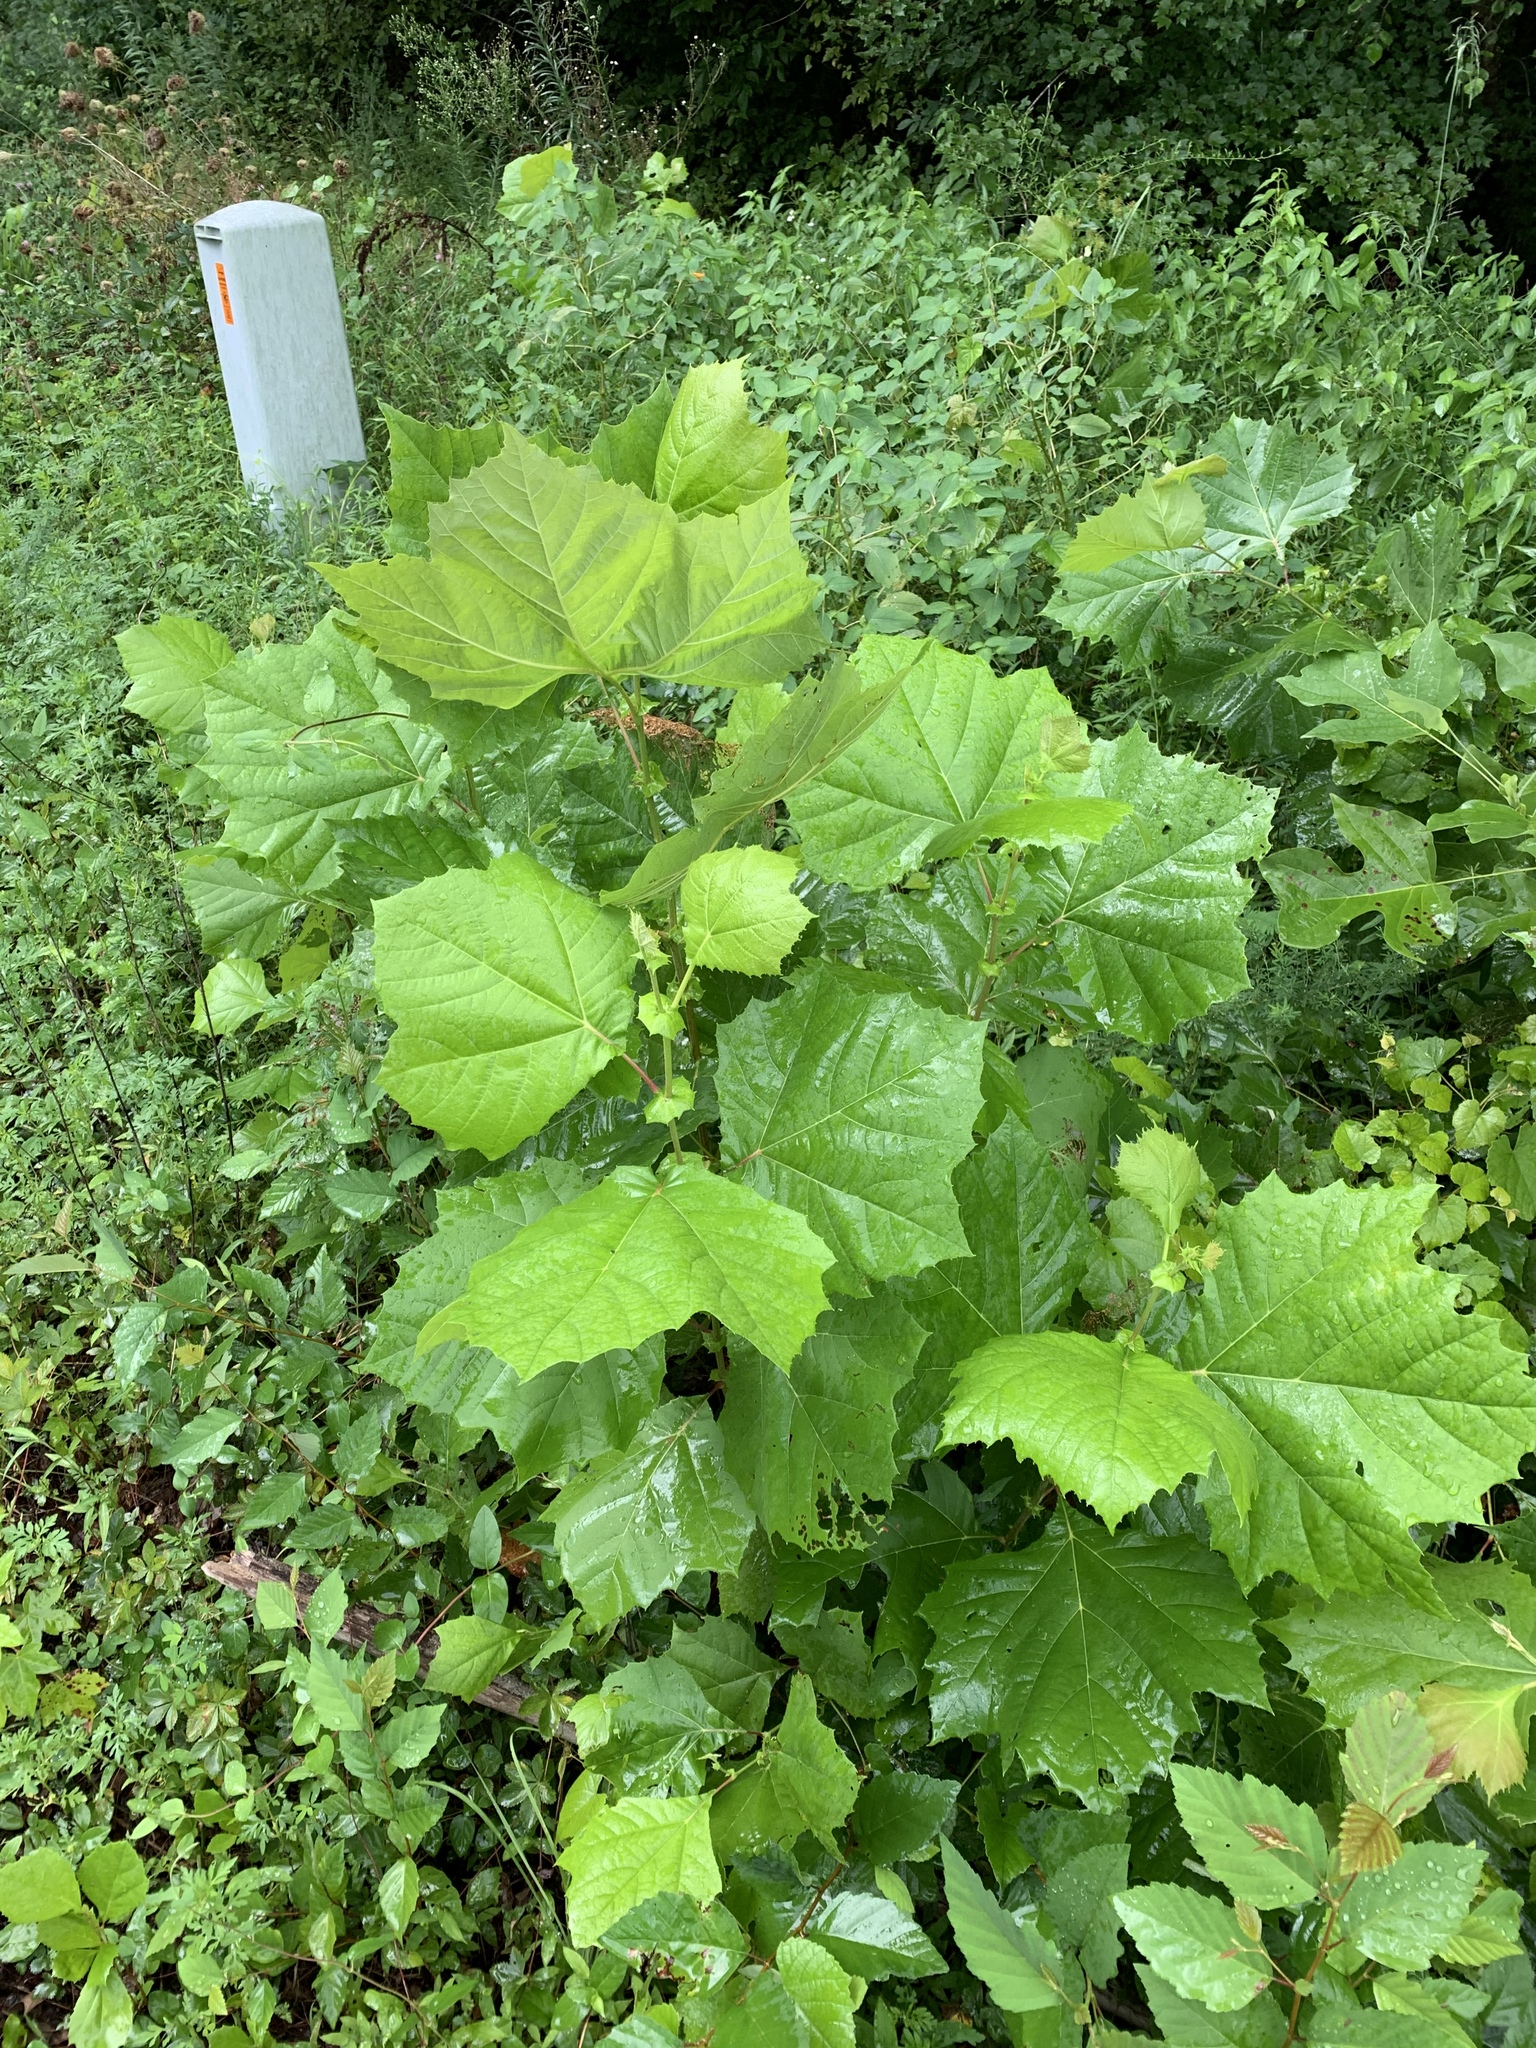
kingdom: Plantae
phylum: Tracheophyta
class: Magnoliopsida
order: Proteales
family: Platanaceae
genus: Platanus
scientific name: Platanus occidentalis
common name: American sycamore
